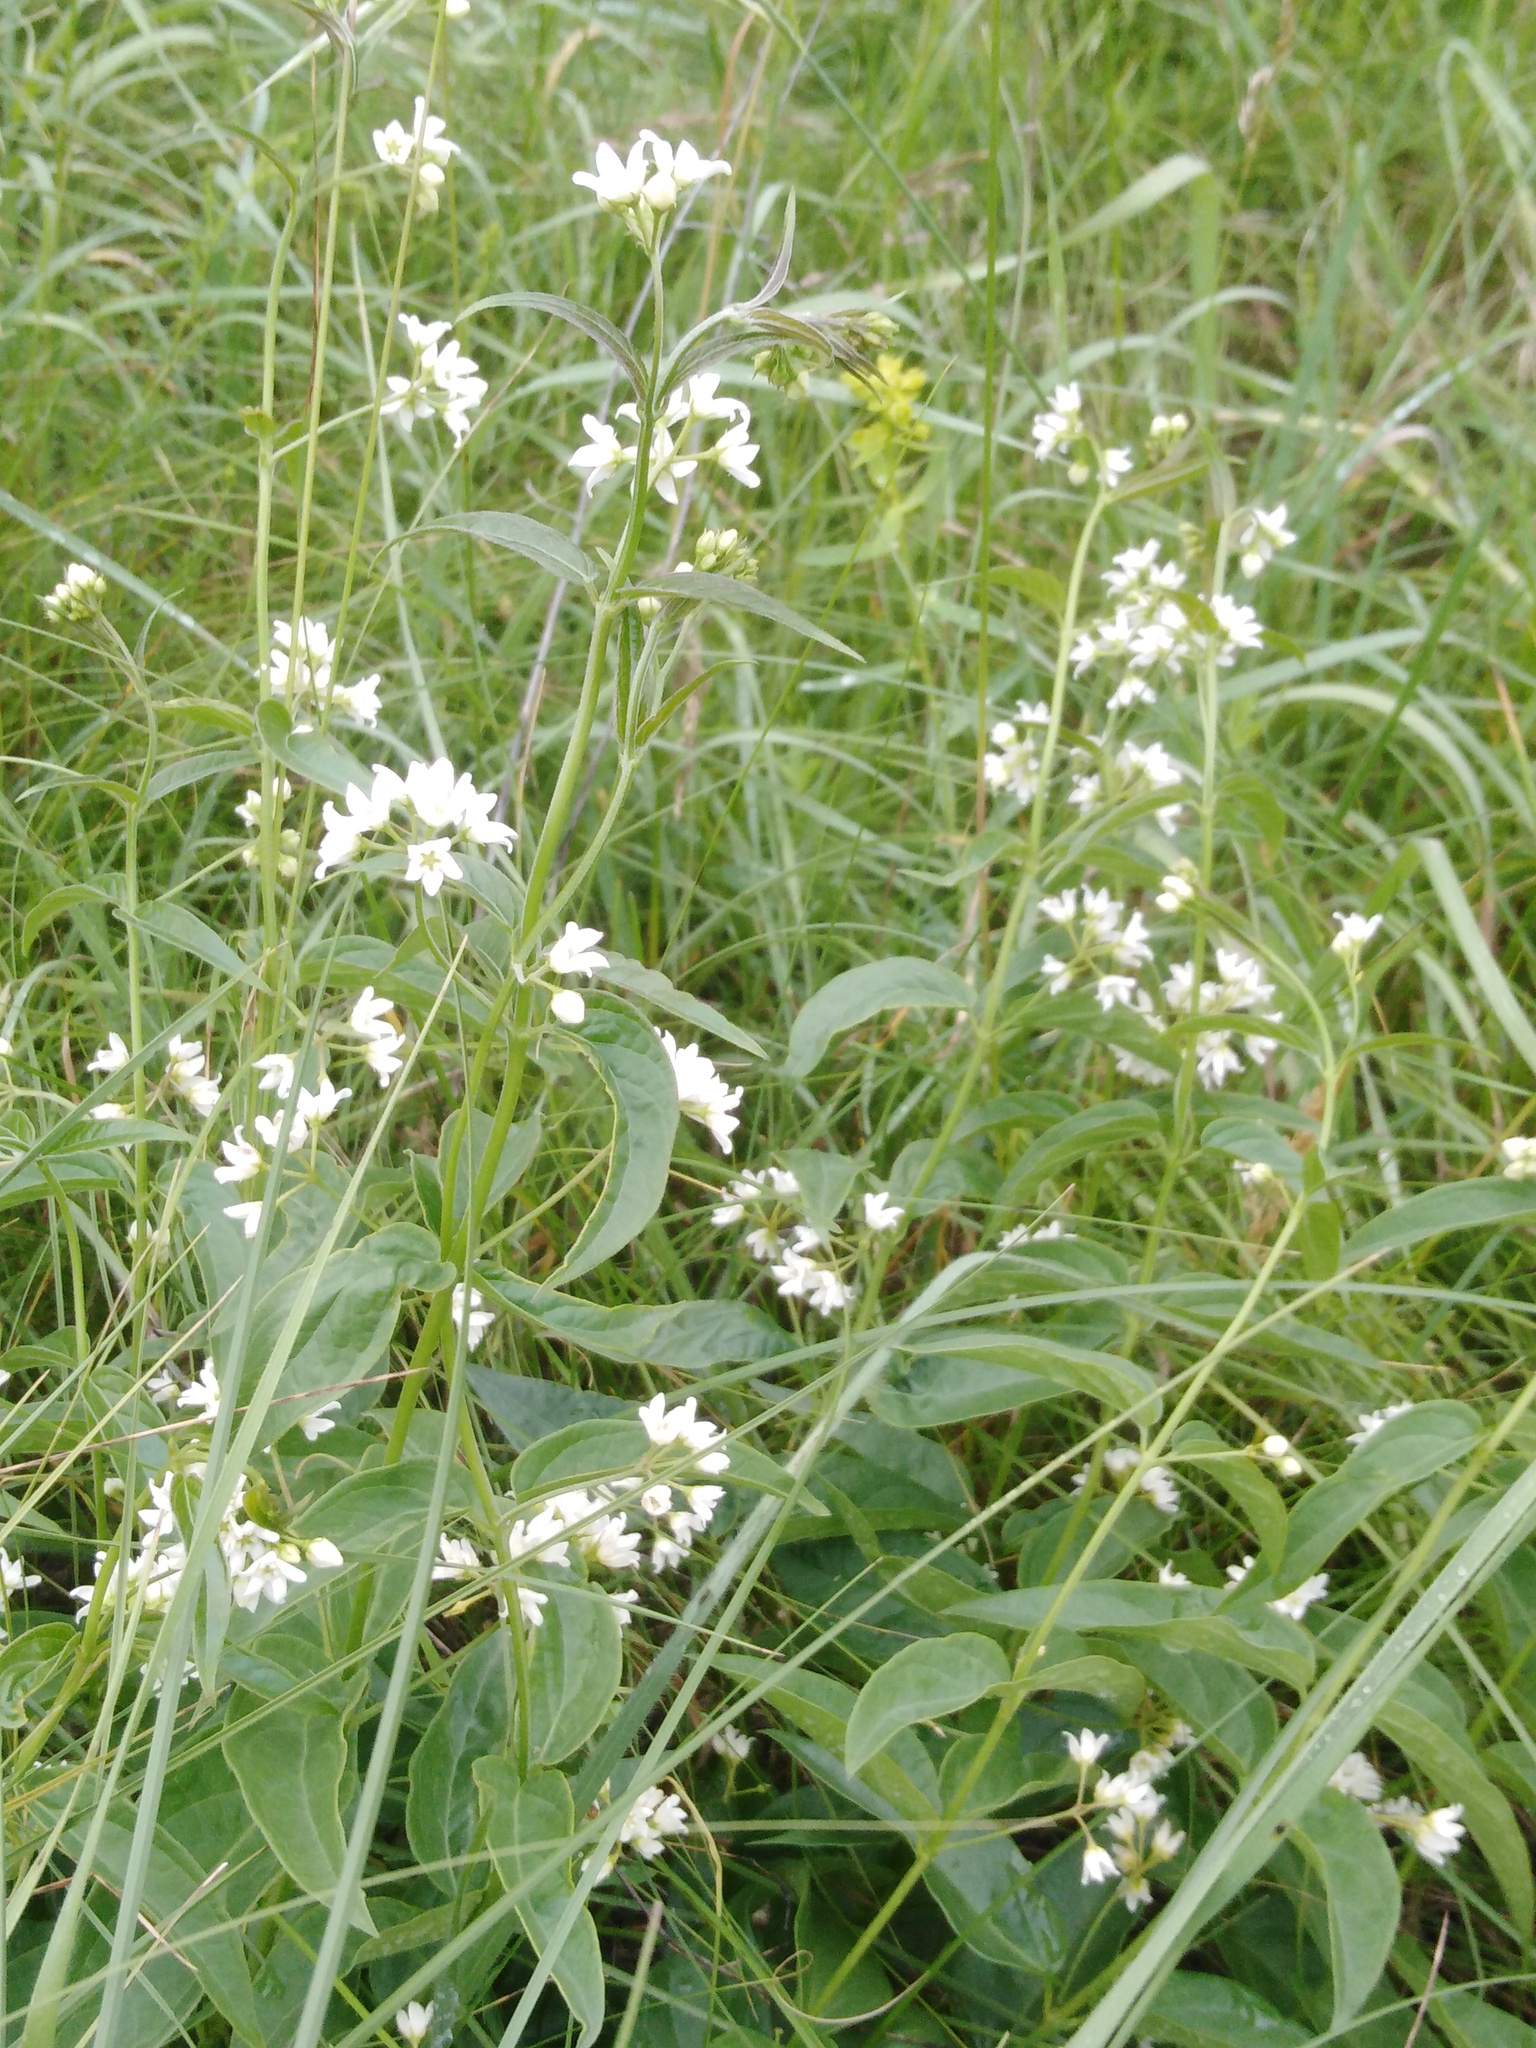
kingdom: Plantae
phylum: Tracheophyta
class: Magnoliopsida
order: Gentianales
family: Apocynaceae
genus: Vincetoxicum
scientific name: Vincetoxicum hirundinaria
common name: White swallowwort
